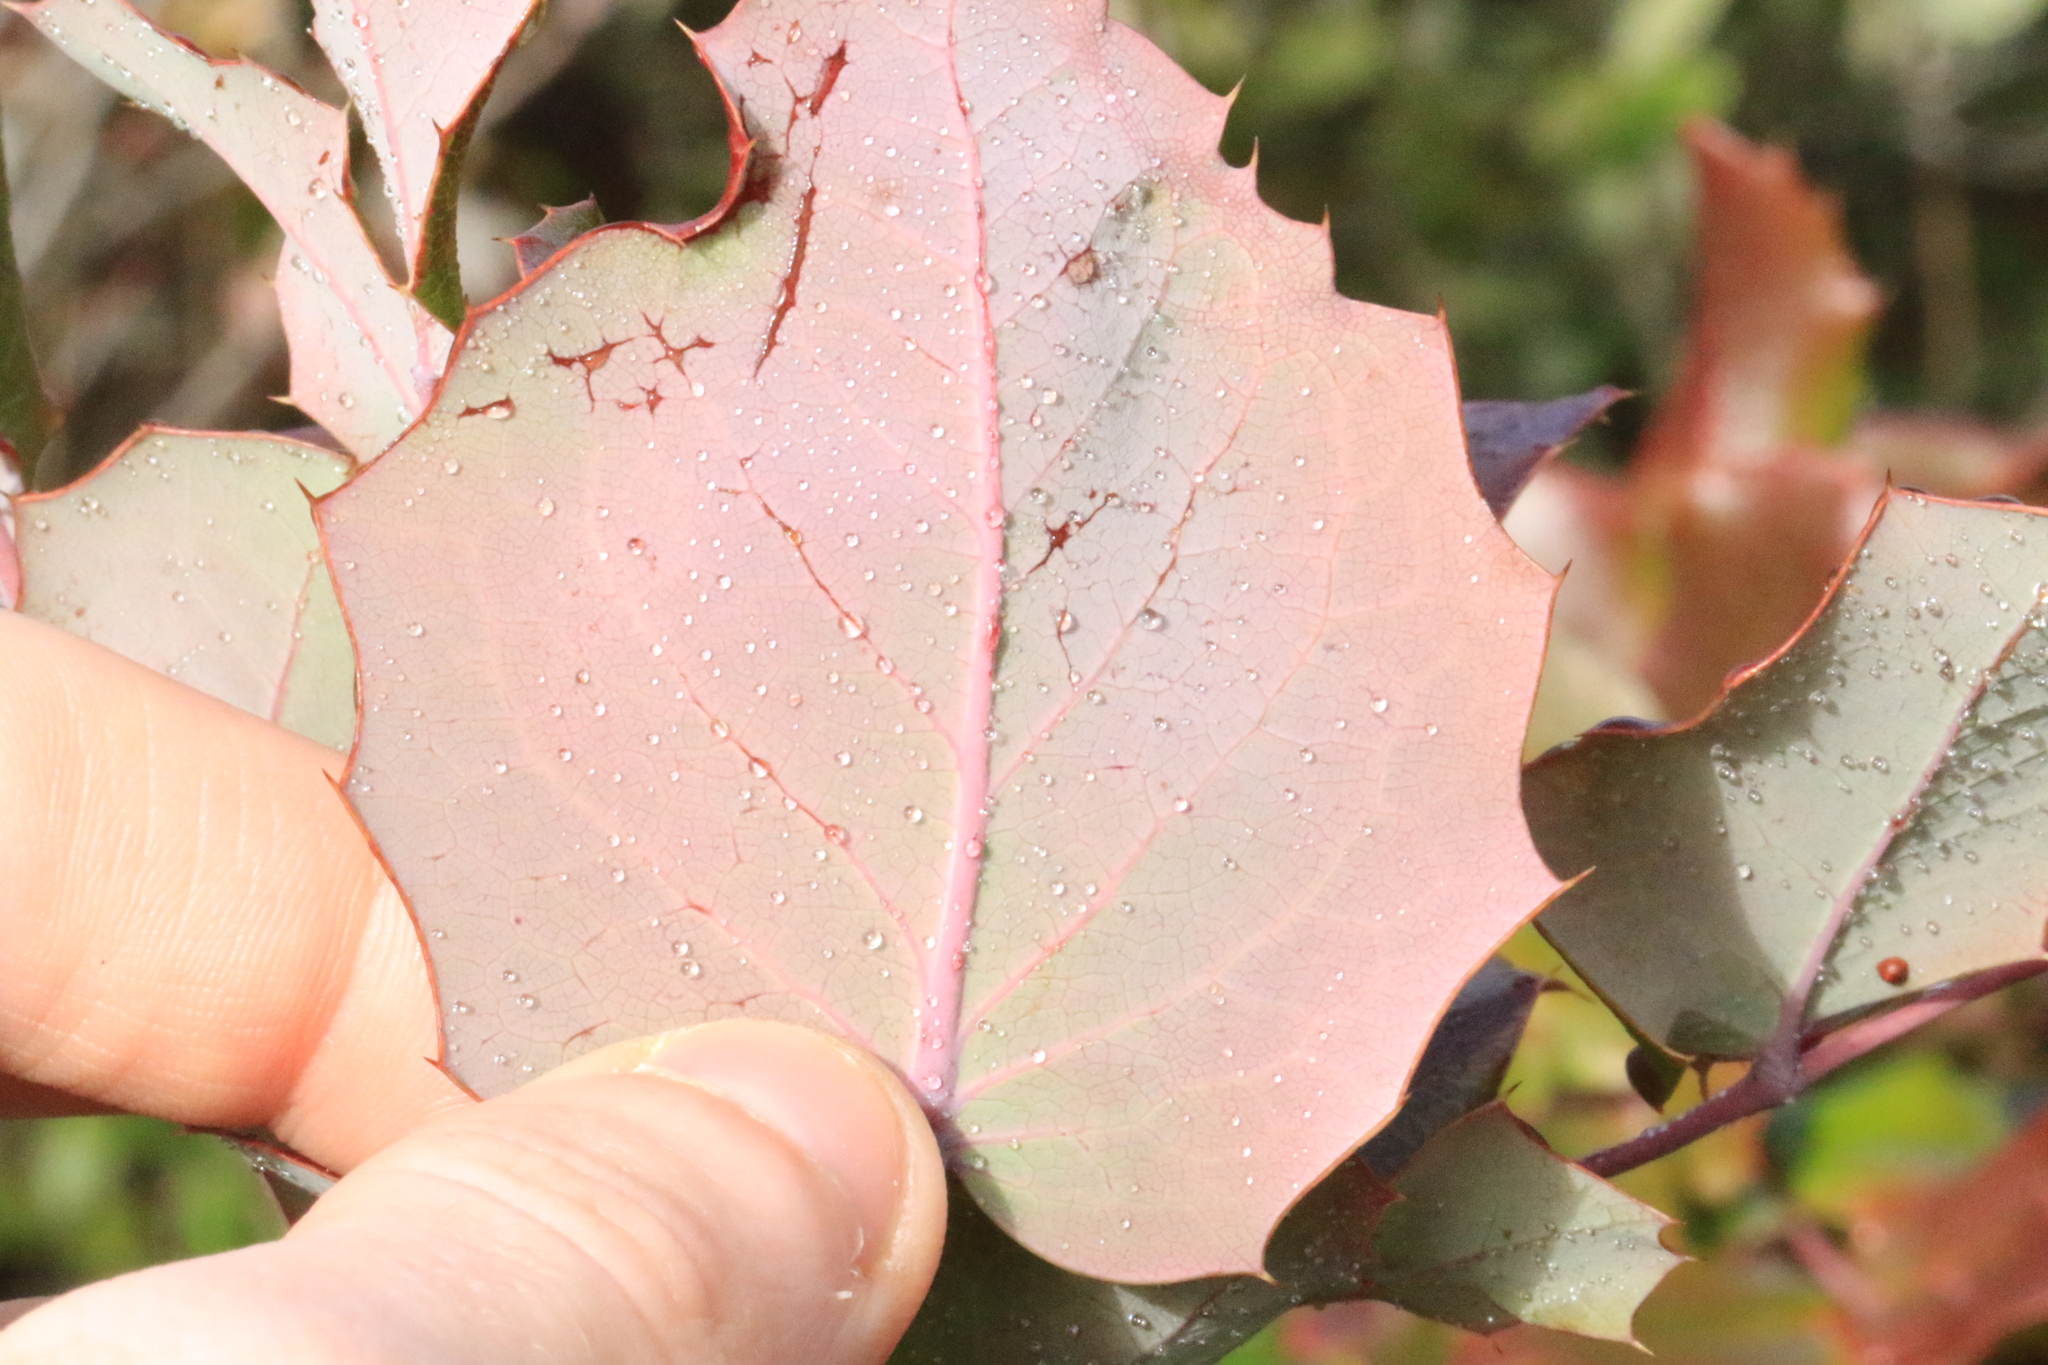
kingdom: Plantae
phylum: Tracheophyta
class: Magnoliopsida
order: Ranunculales
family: Berberidaceae
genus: Mahonia
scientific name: Mahonia aquifolium
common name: Oregon-grape
